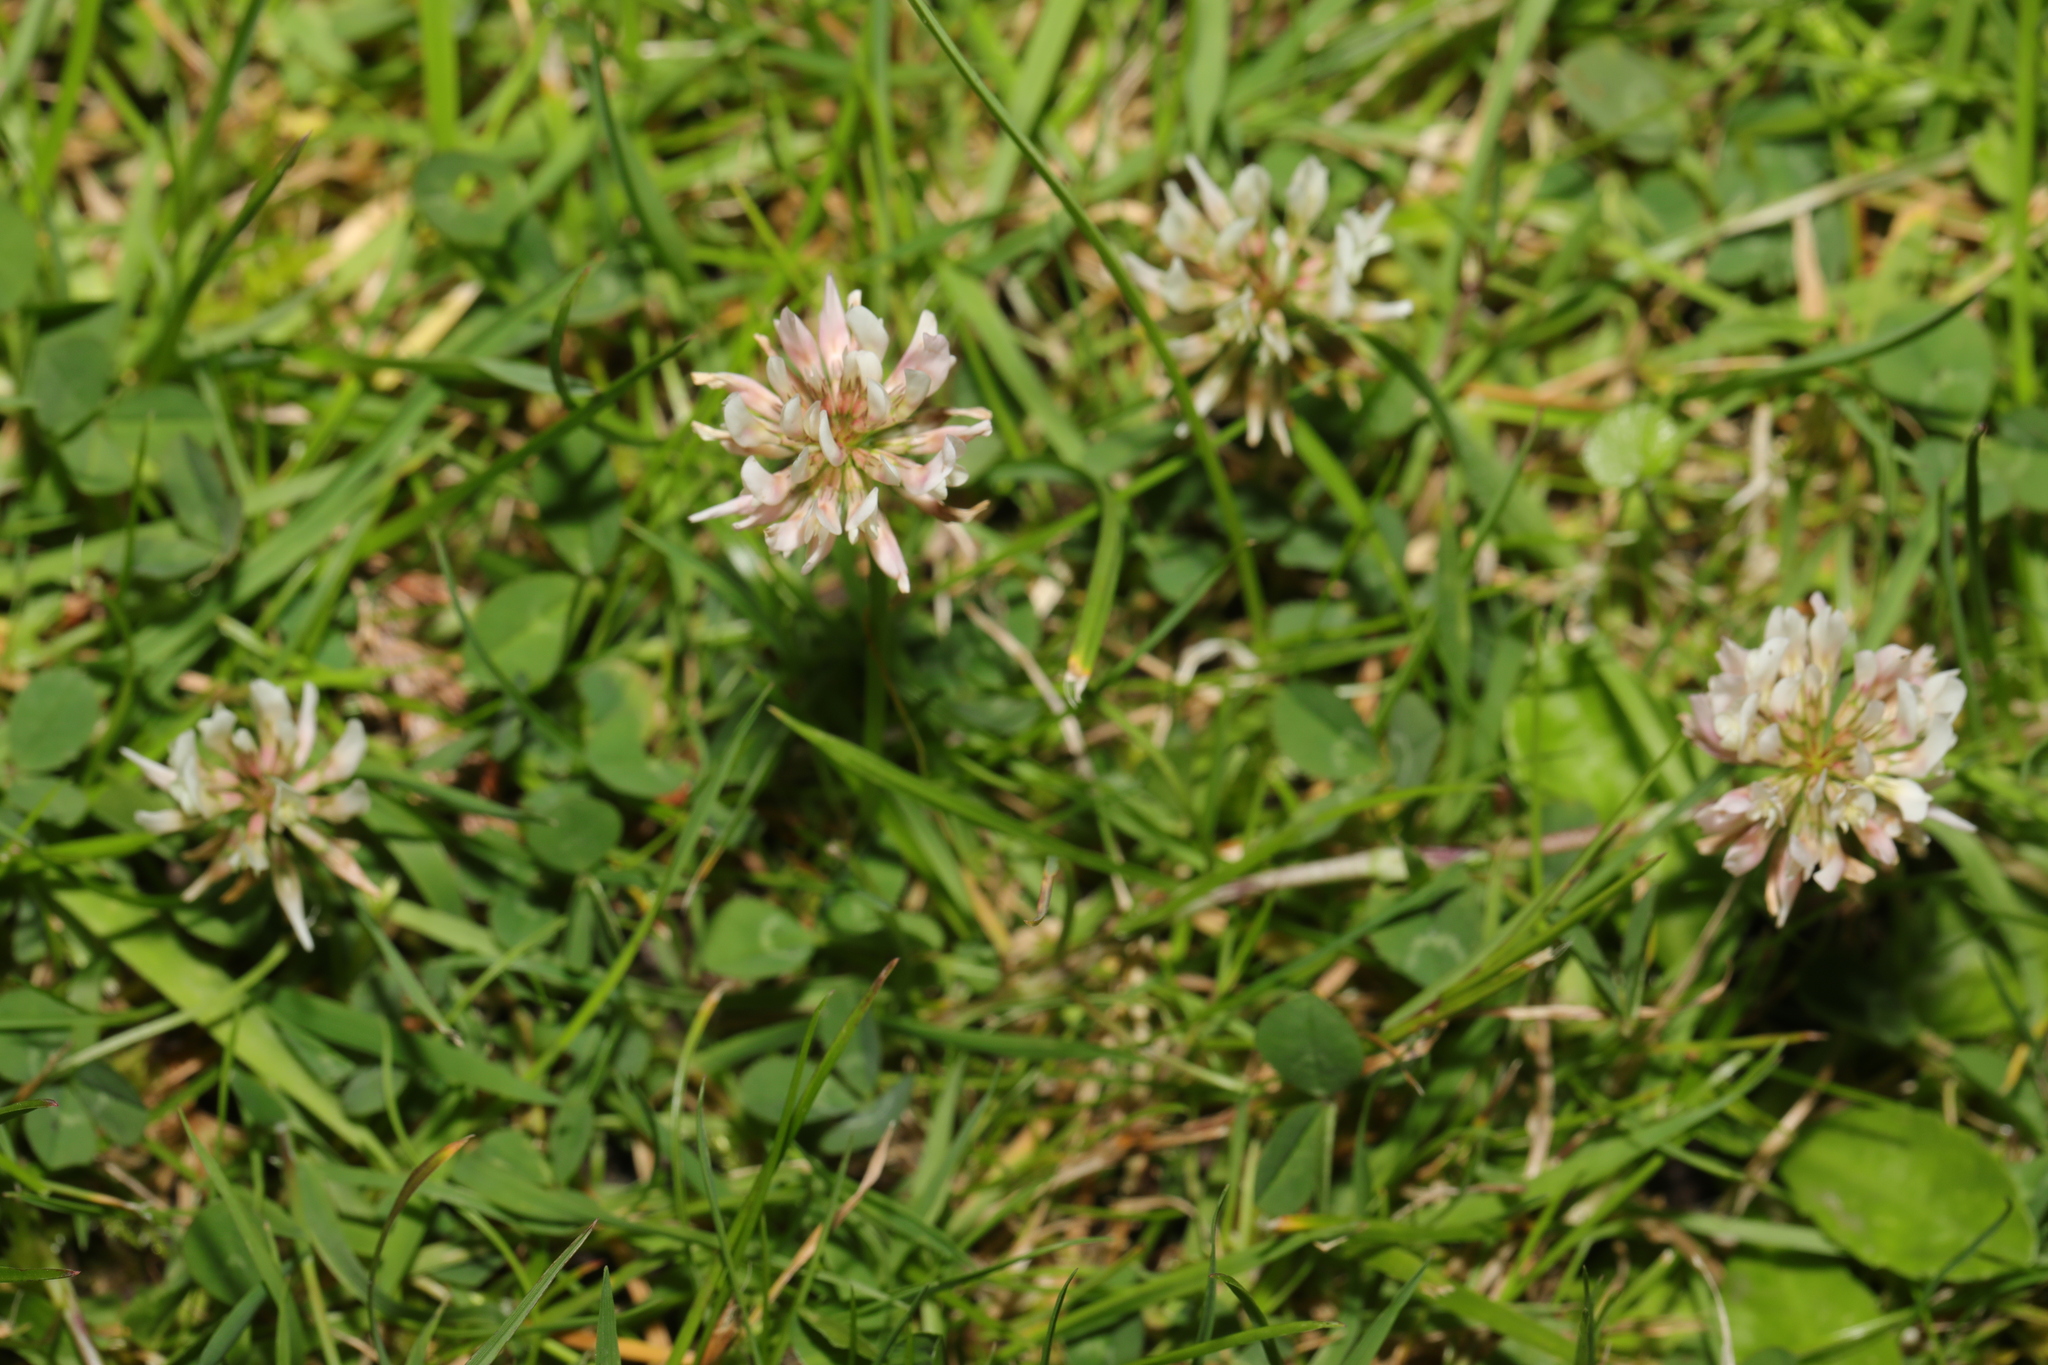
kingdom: Plantae
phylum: Tracheophyta
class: Magnoliopsida
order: Fabales
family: Fabaceae
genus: Trifolium
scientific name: Trifolium repens
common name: White clover
